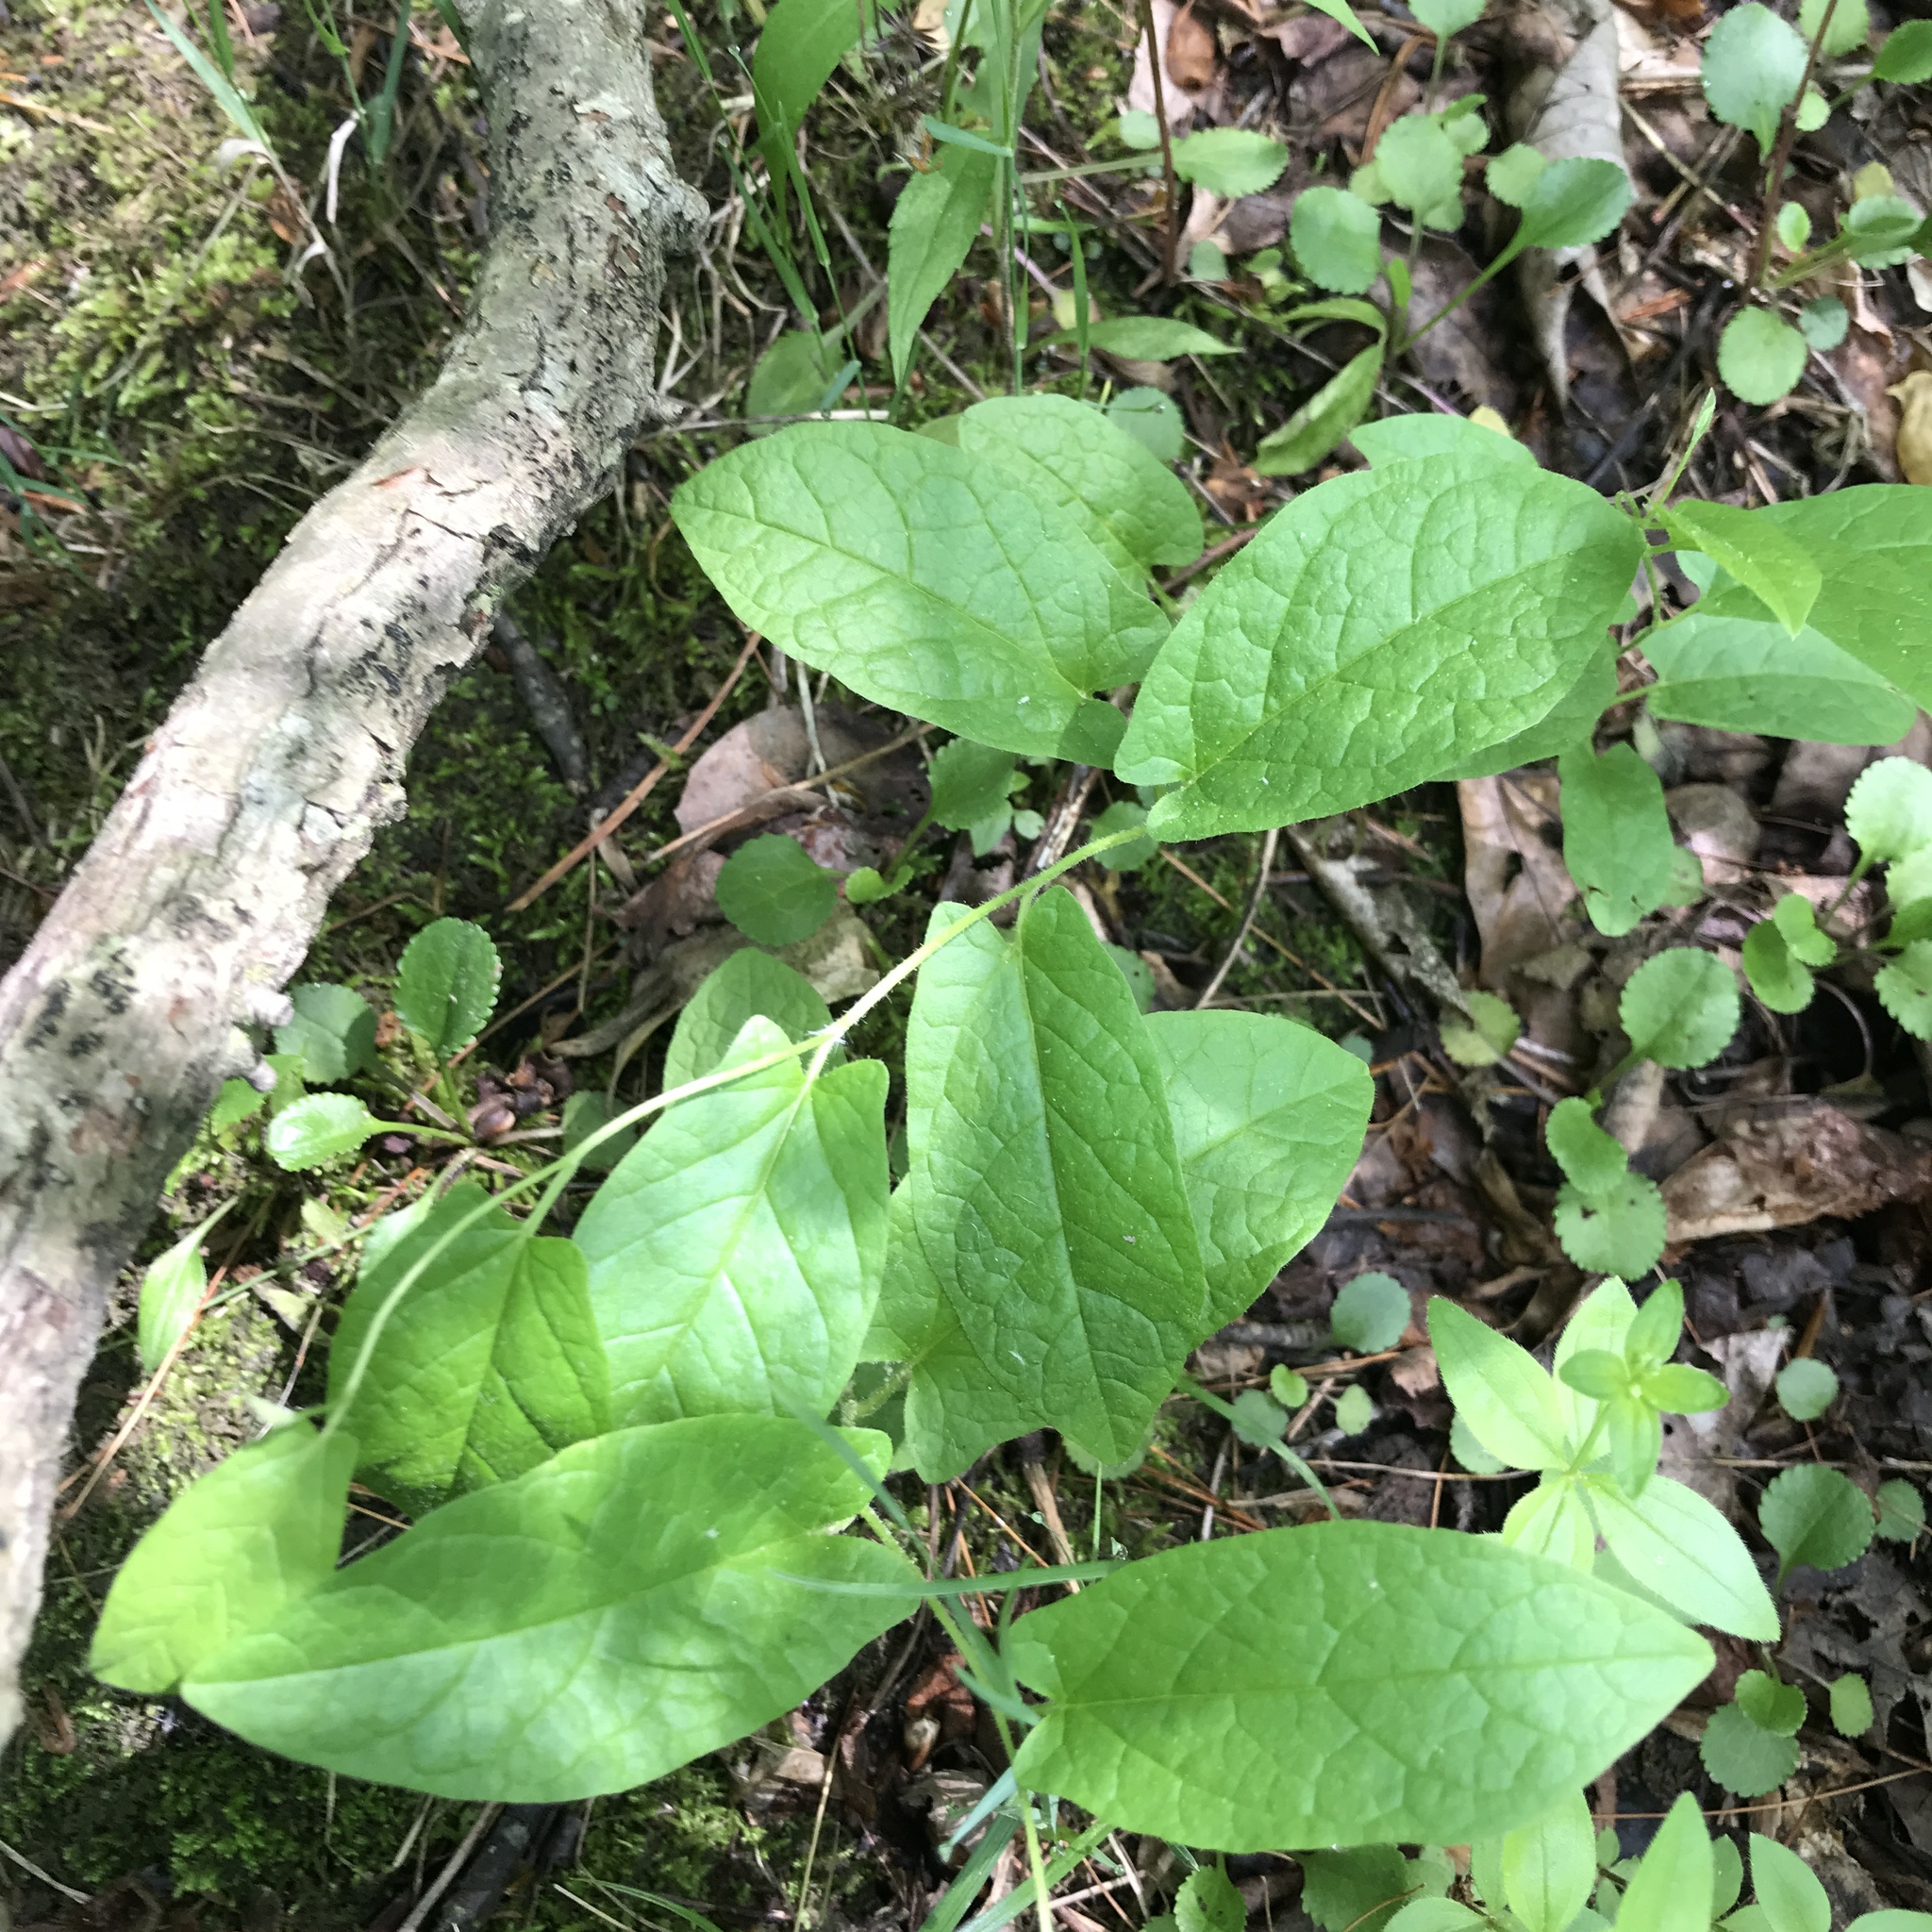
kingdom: Plantae
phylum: Tracheophyta
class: Magnoliopsida
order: Solanales
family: Convolvulaceae
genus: Calystegia
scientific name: Calystegia spithamaea
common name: Dwarf bindweed
